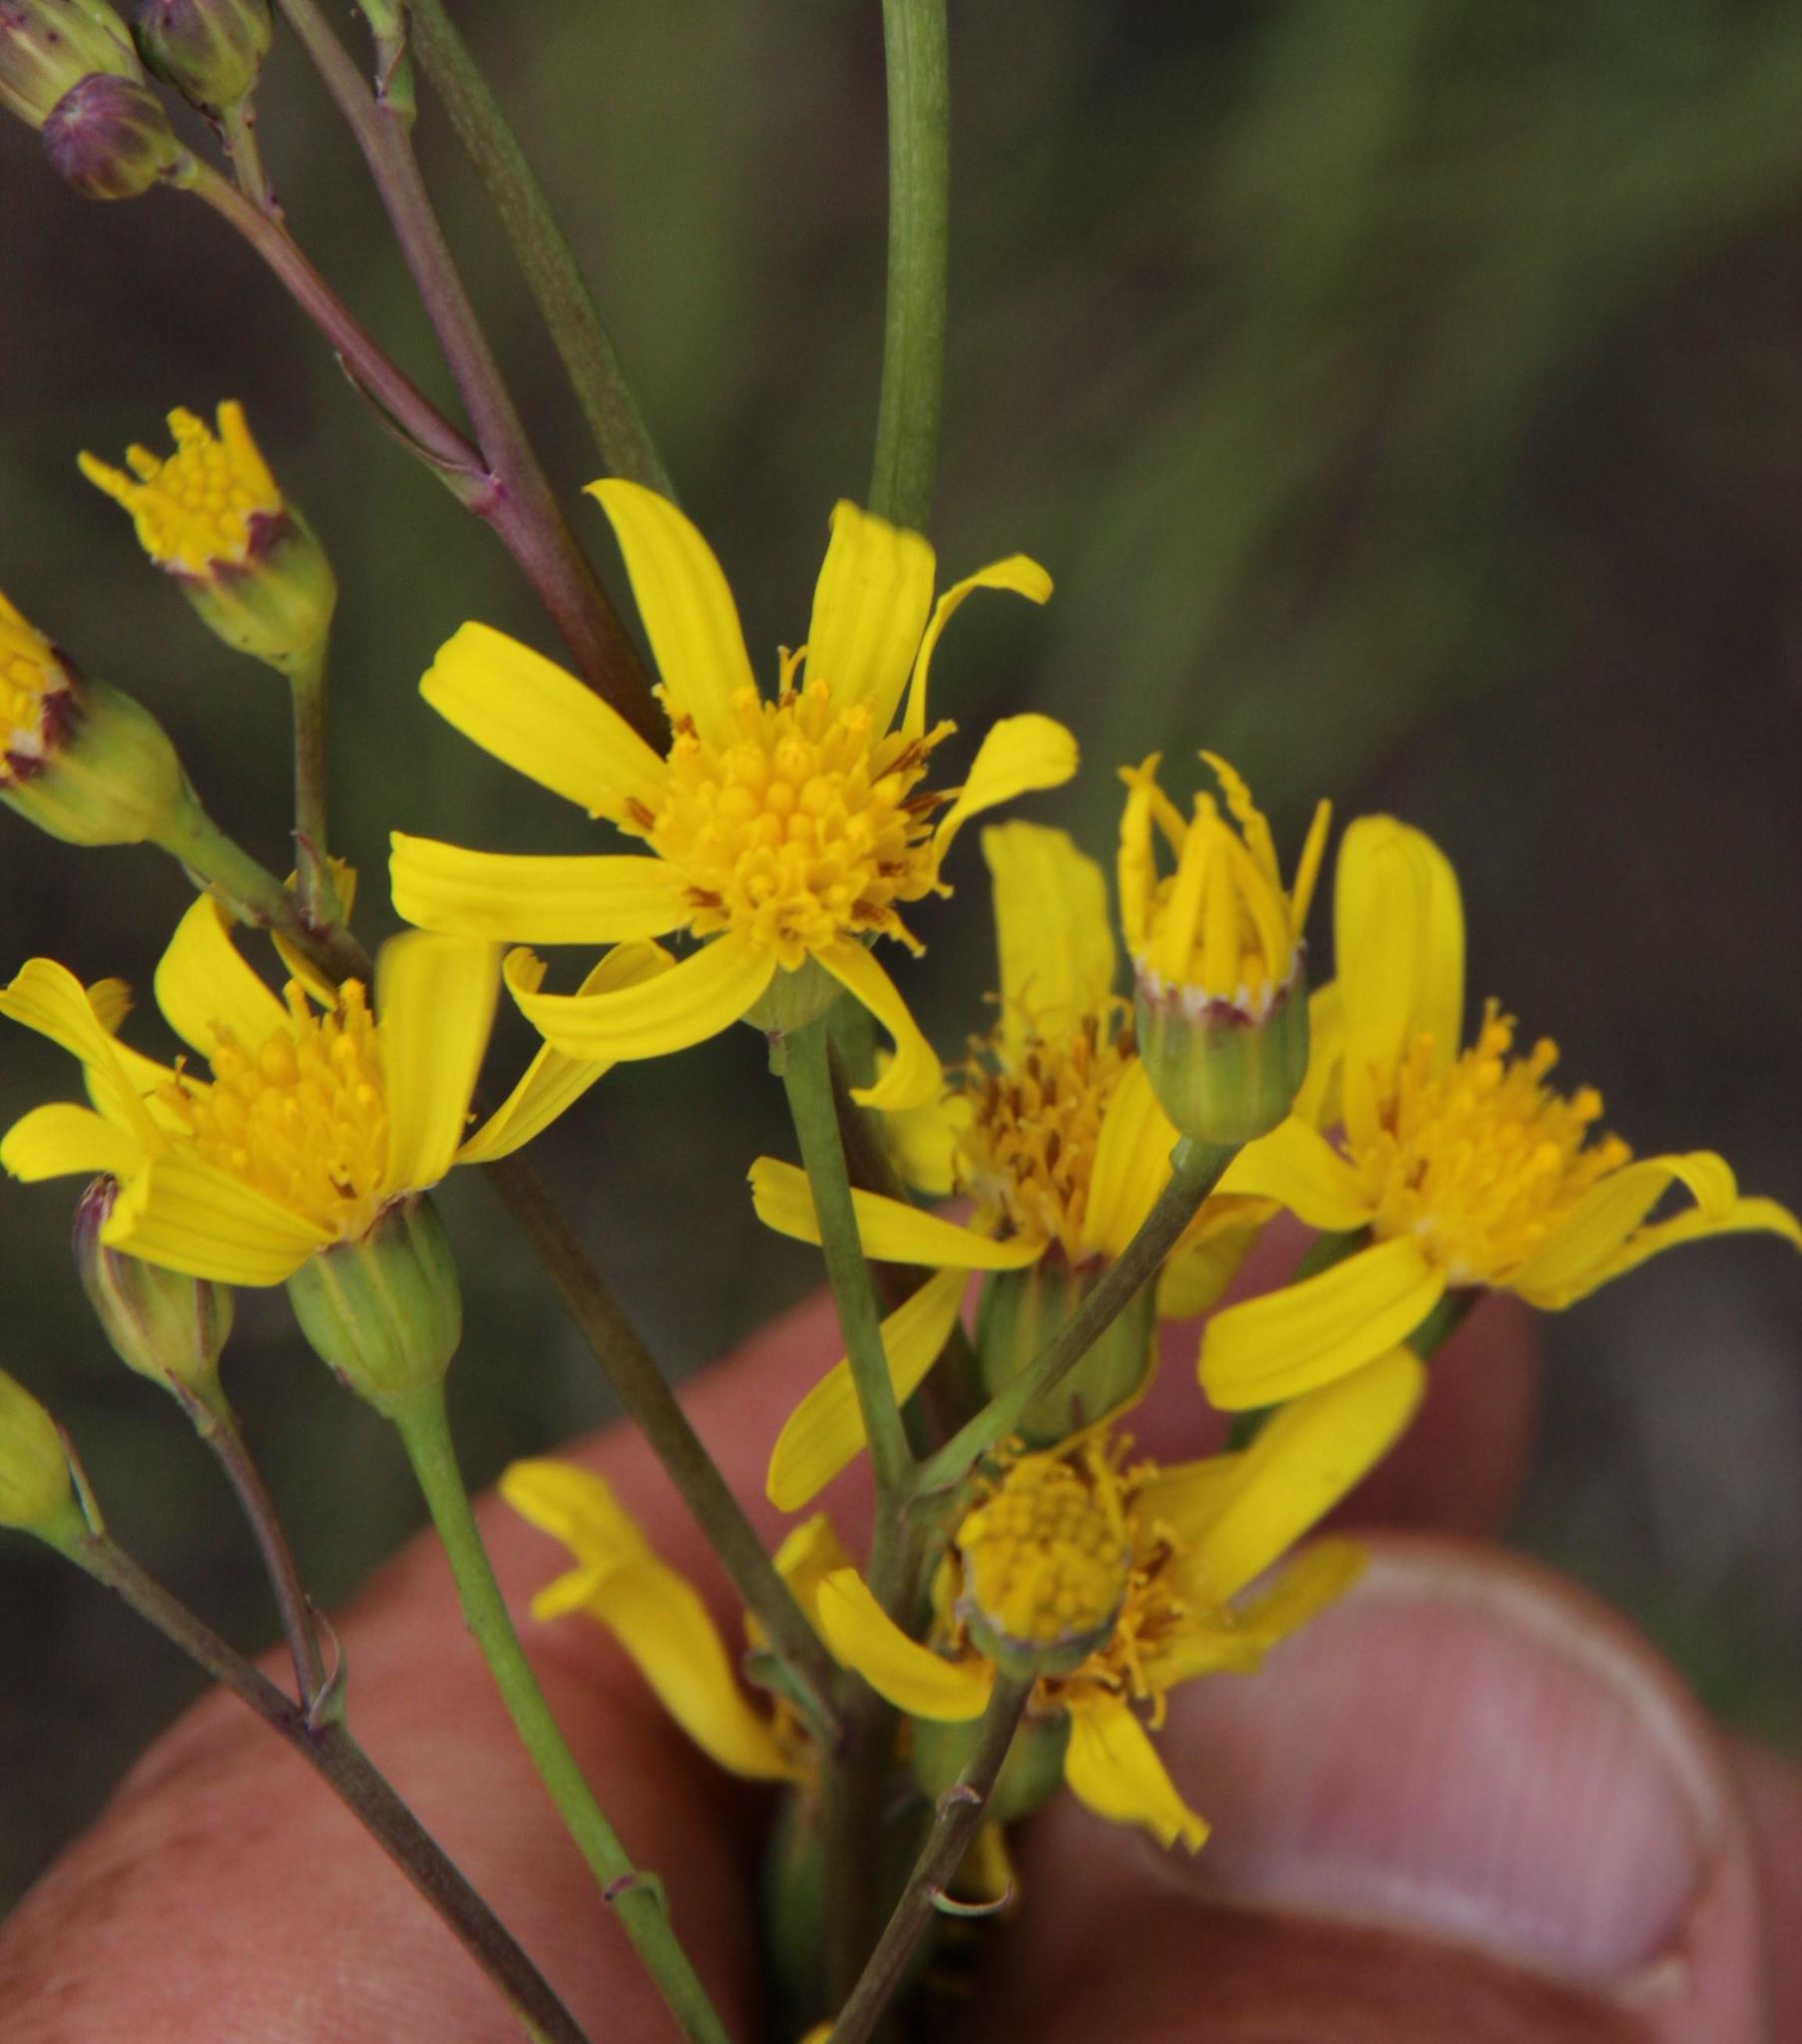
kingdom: Plantae
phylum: Tracheophyta
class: Magnoliopsida
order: Asterales
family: Asteraceae
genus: Senecio
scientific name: Senecio coronatus
